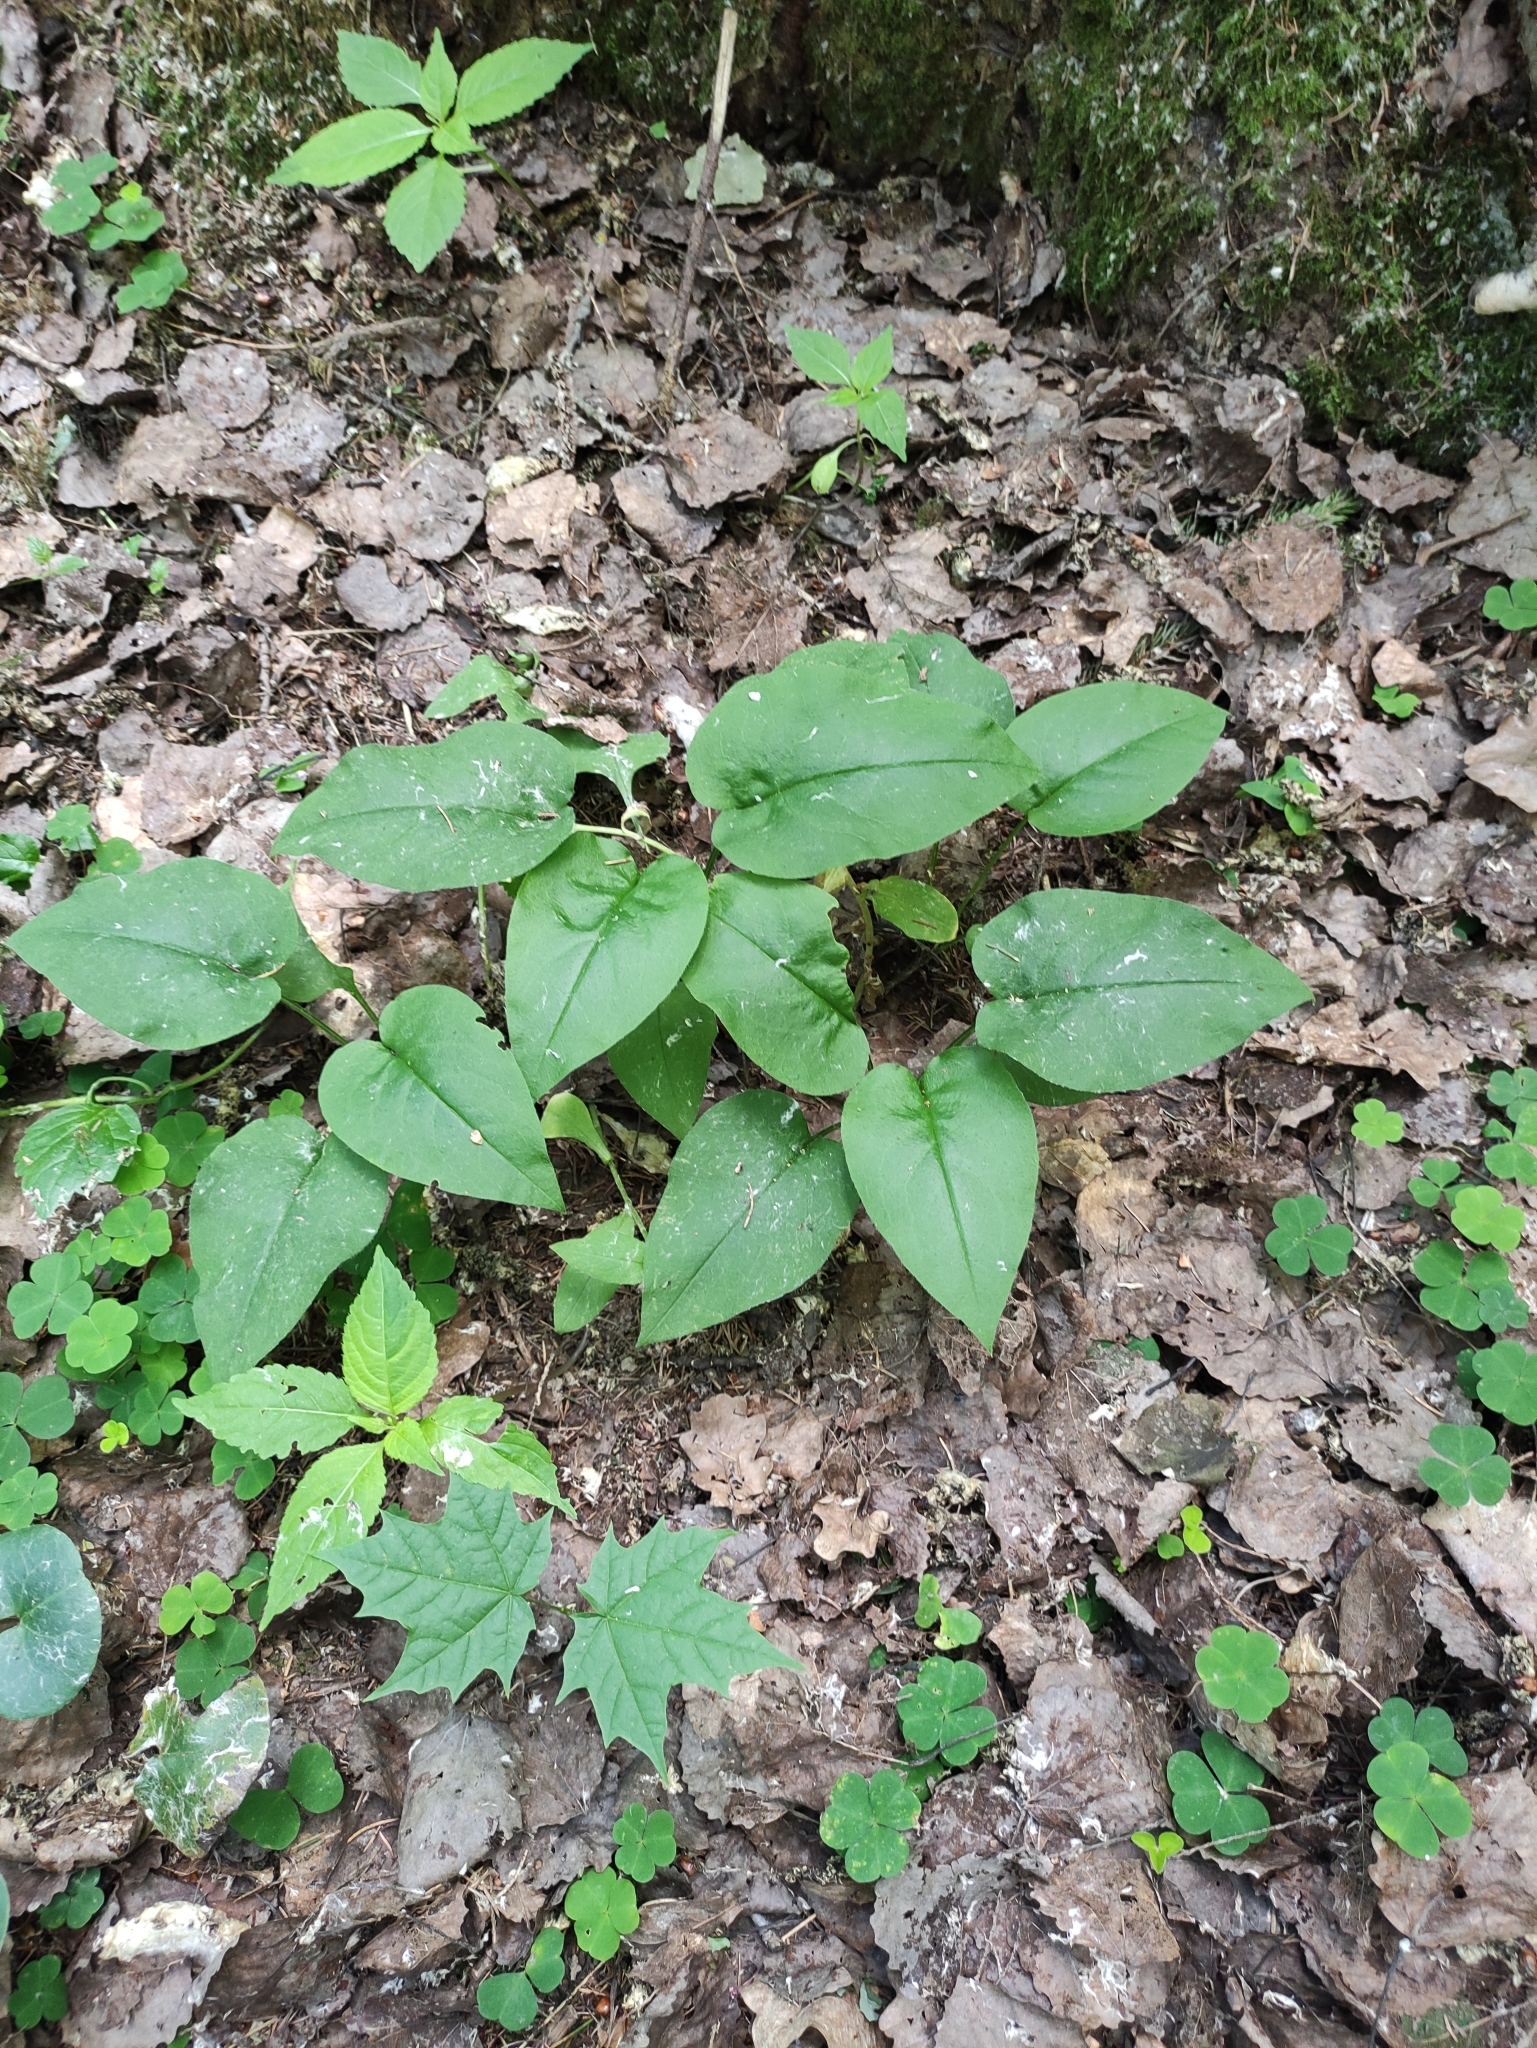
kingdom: Plantae
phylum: Tracheophyta
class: Magnoliopsida
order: Boraginales
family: Boraginaceae
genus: Pulmonaria
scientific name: Pulmonaria obscura
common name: Suffolk lungwort
